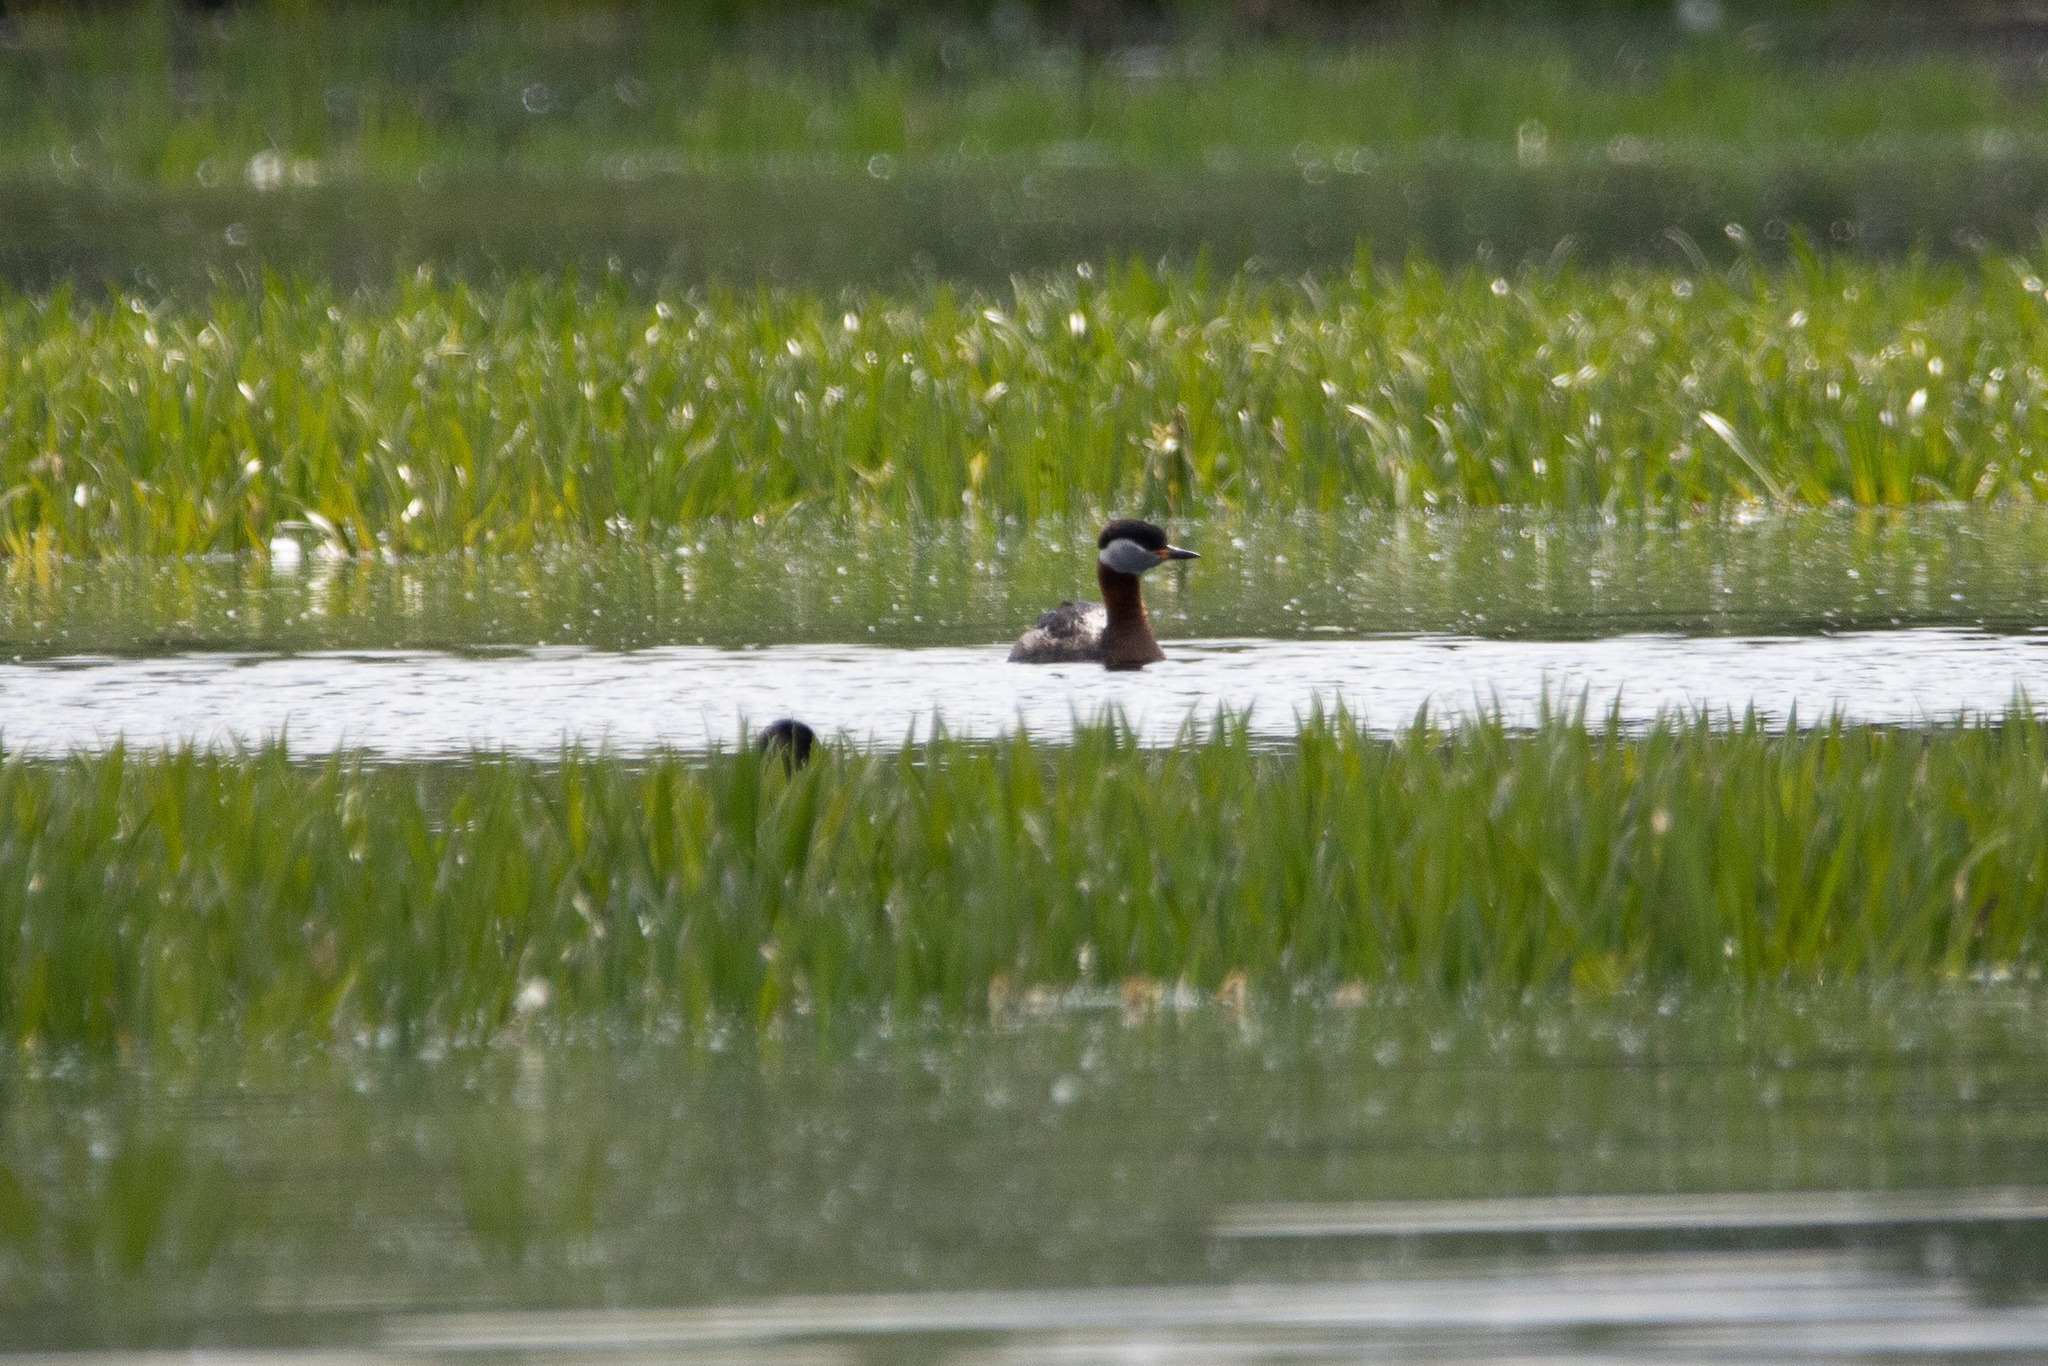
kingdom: Animalia
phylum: Chordata
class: Aves
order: Podicipediformes
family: Podicipedidae
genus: Podiceps
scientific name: Podiceps grisegena
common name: Red-necked grebe
